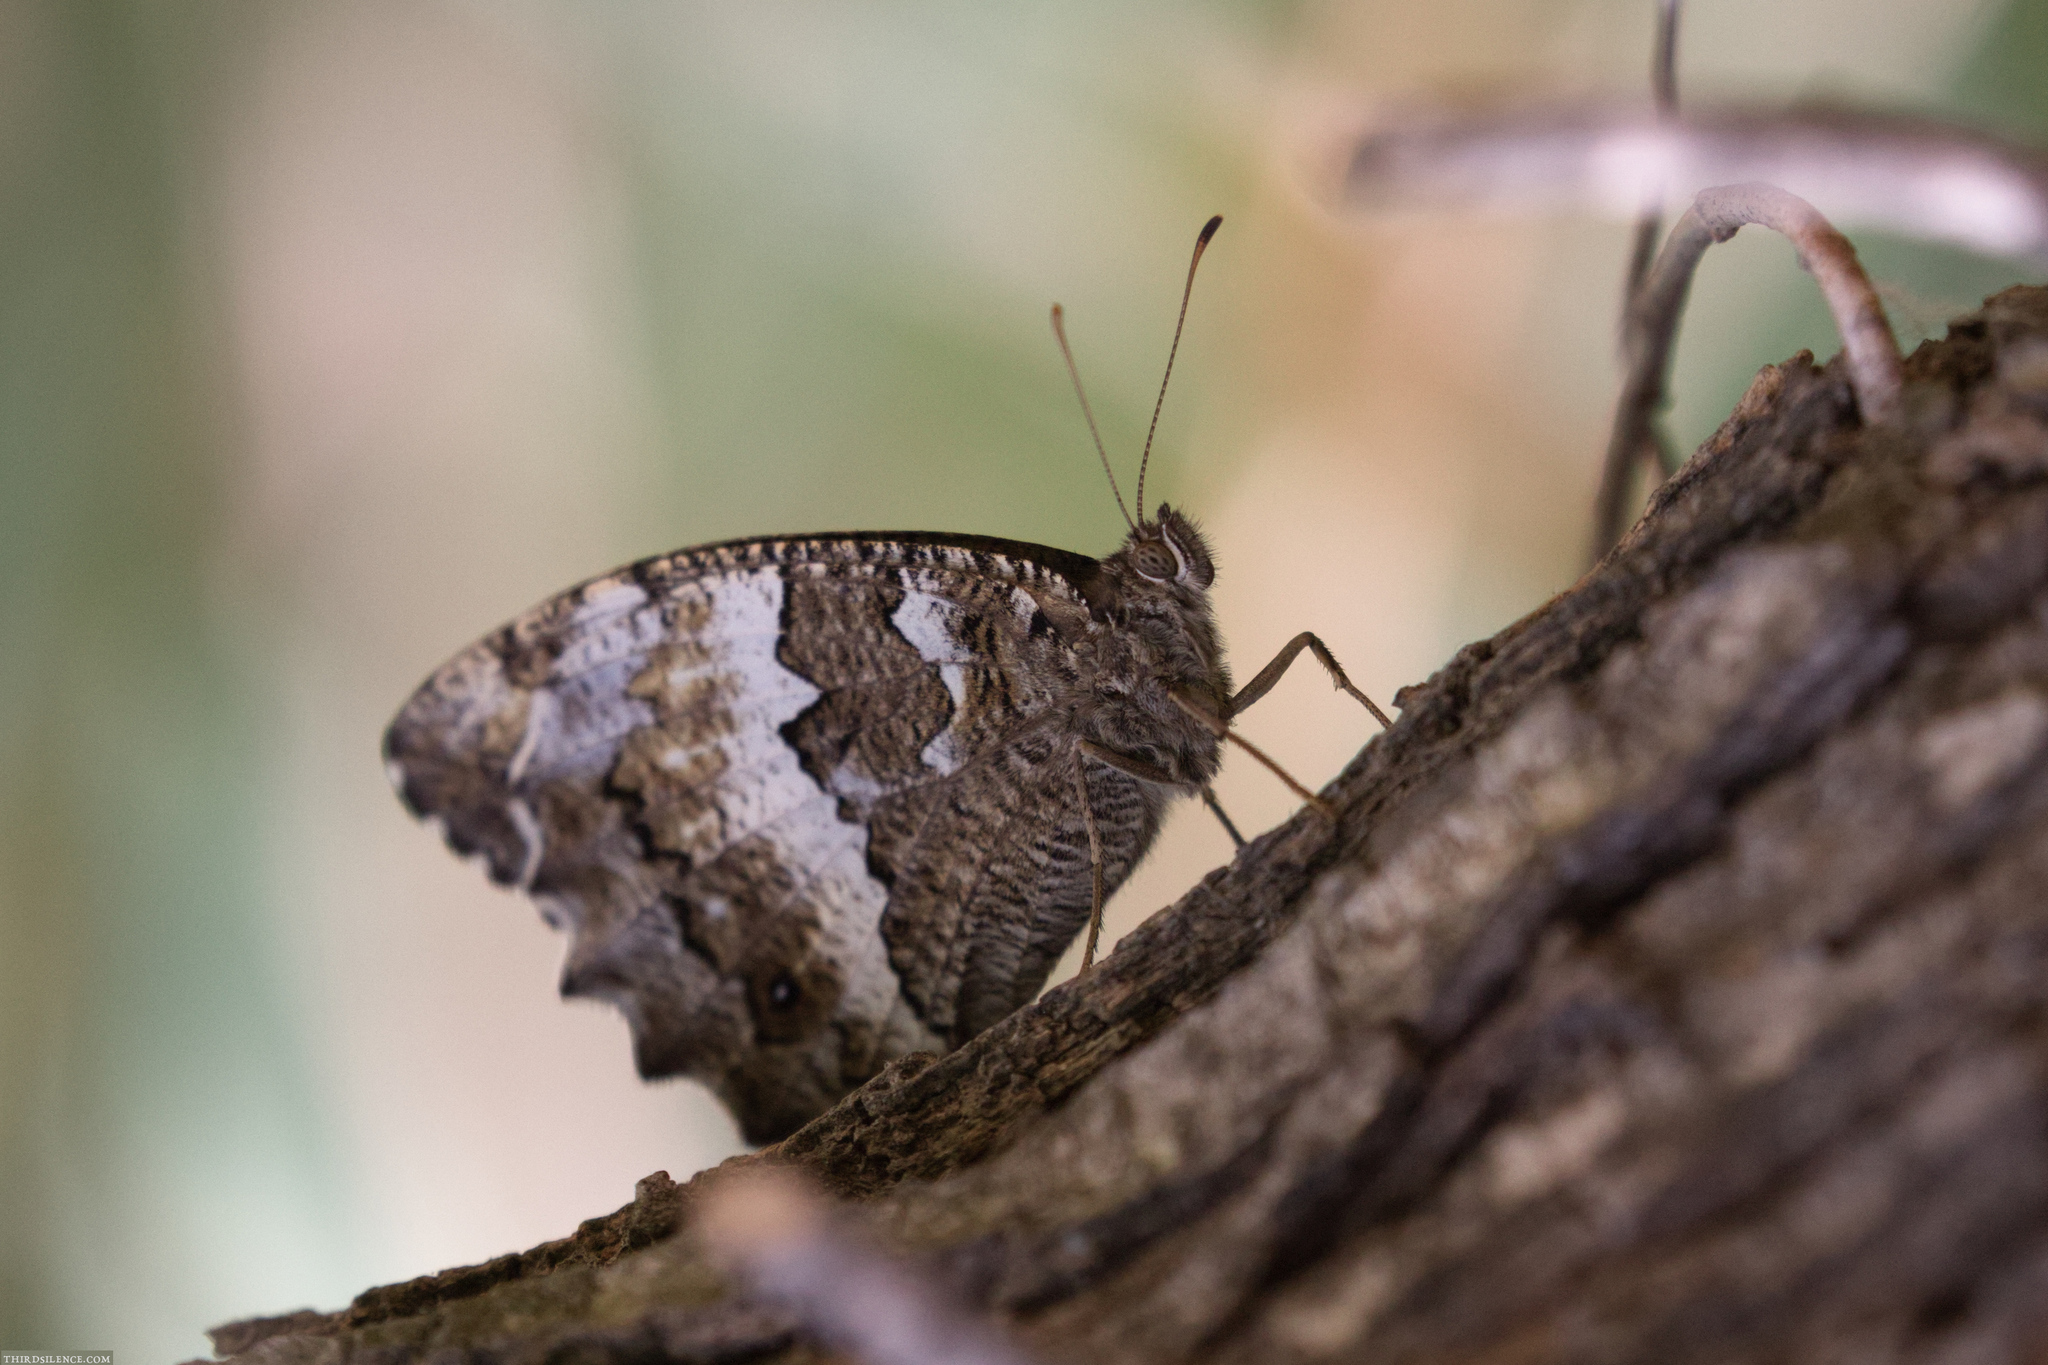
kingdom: Animalia
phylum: Arthropoda
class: Insecta
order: Lepidoptera
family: Lycaenidae
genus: Loweia
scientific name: Loweia tityrus
